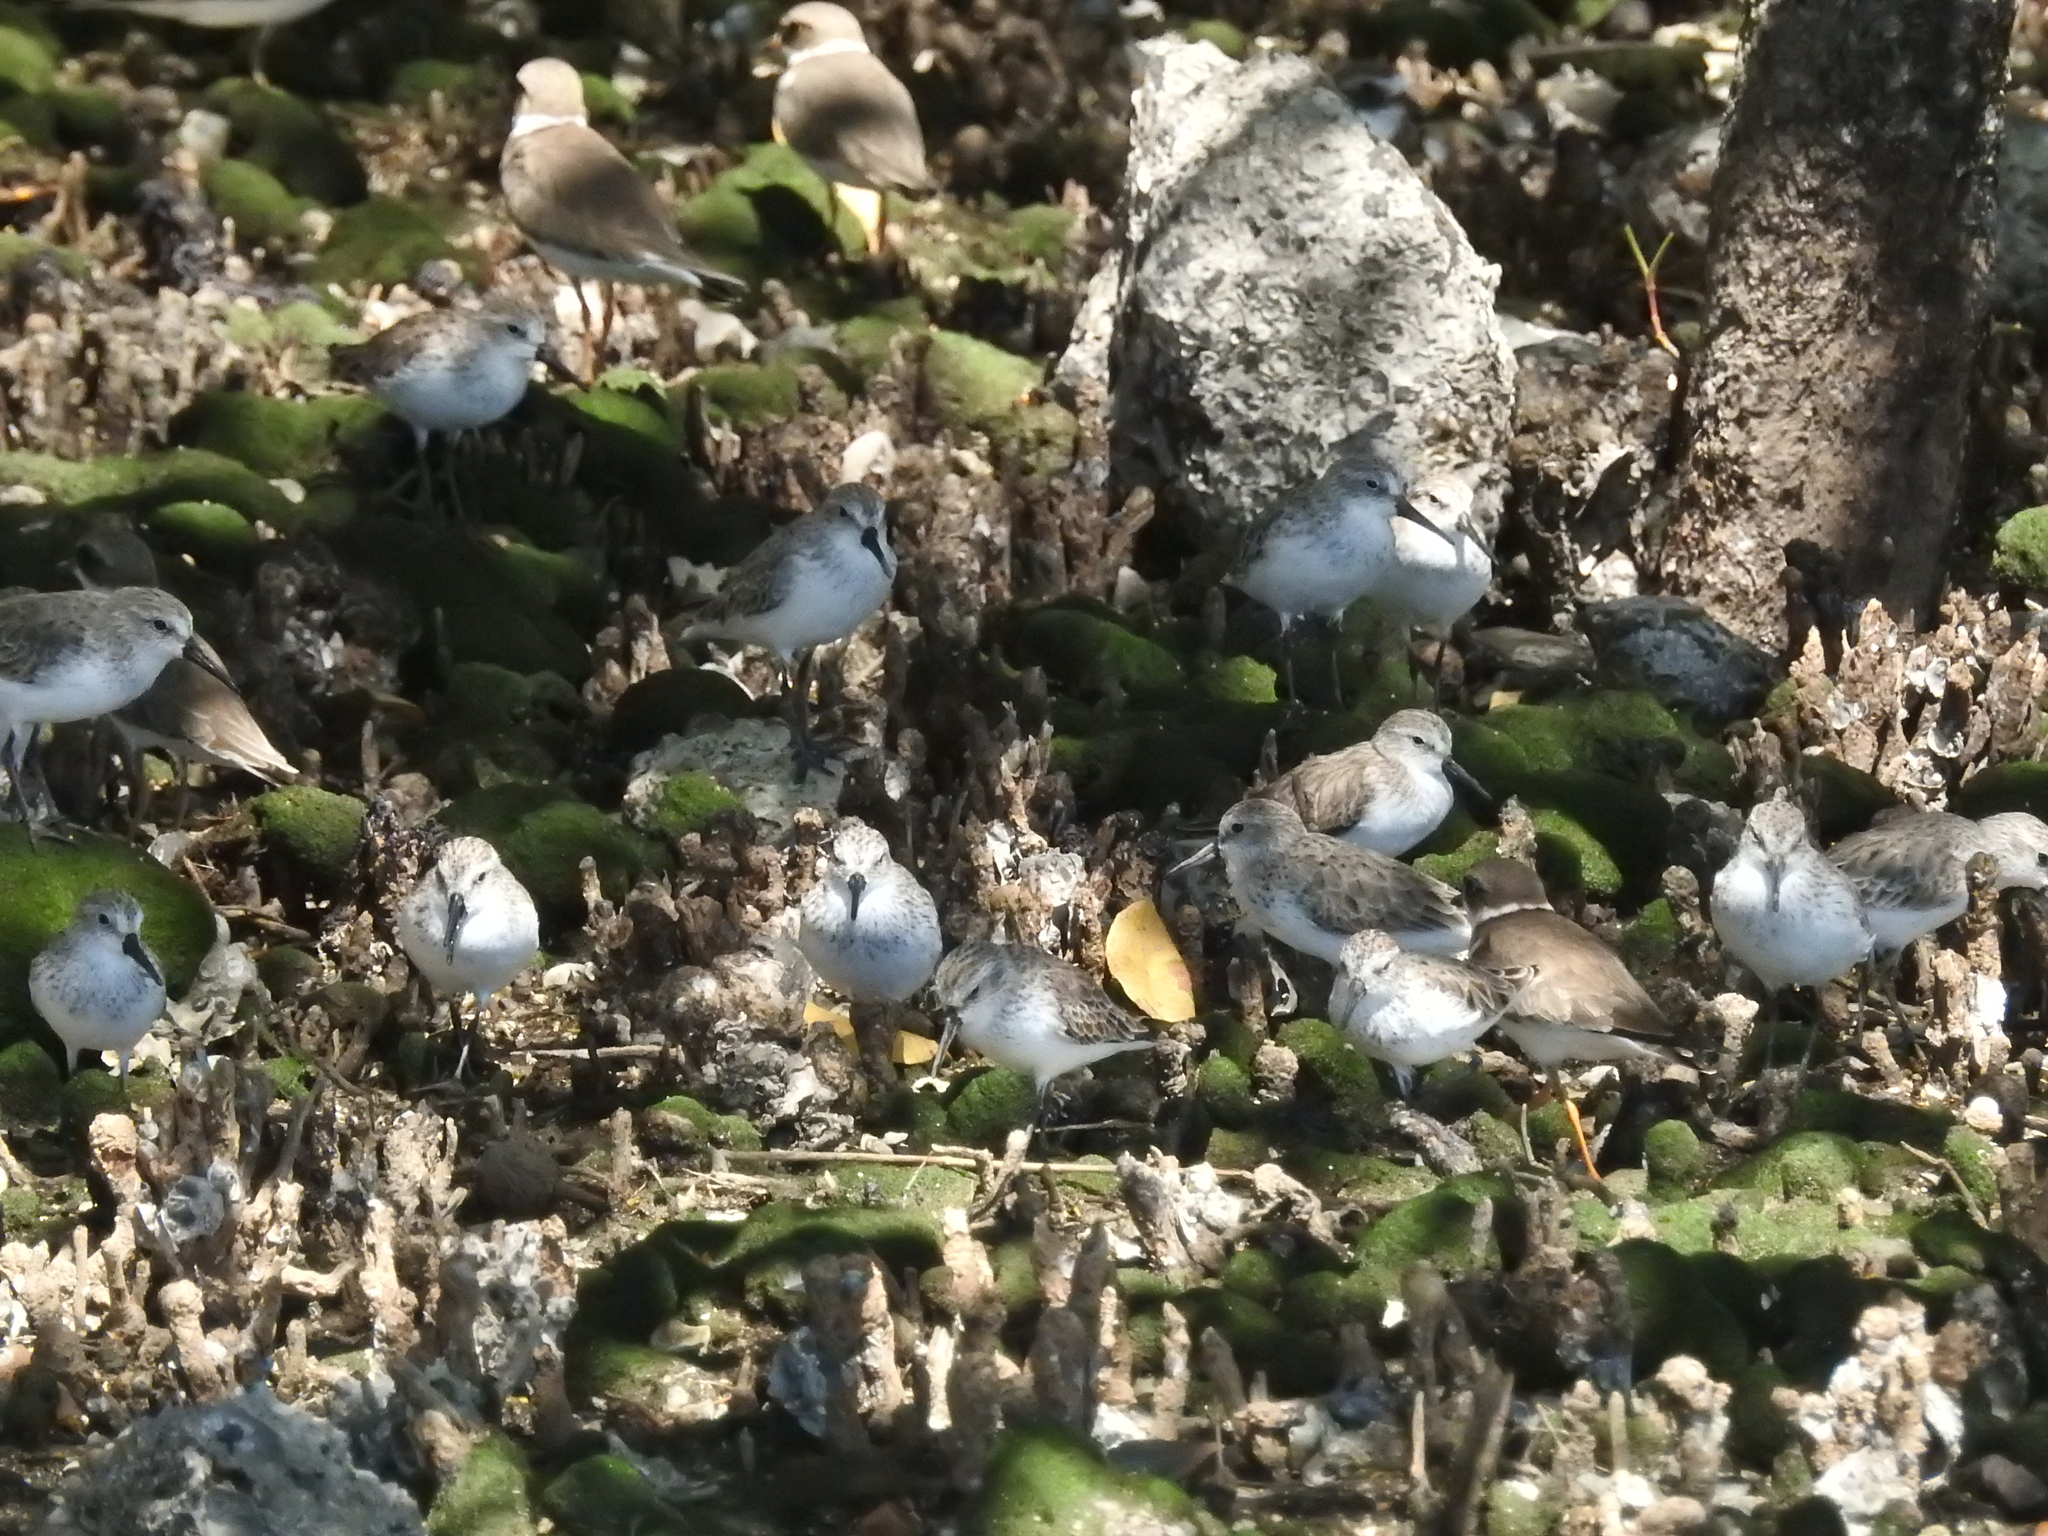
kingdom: Animalia
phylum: Chordata
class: Aves
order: Charadriiformes
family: Charadriidae
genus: Charadrius
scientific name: Charadrius semipalmatus
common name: Semipalmated plover
